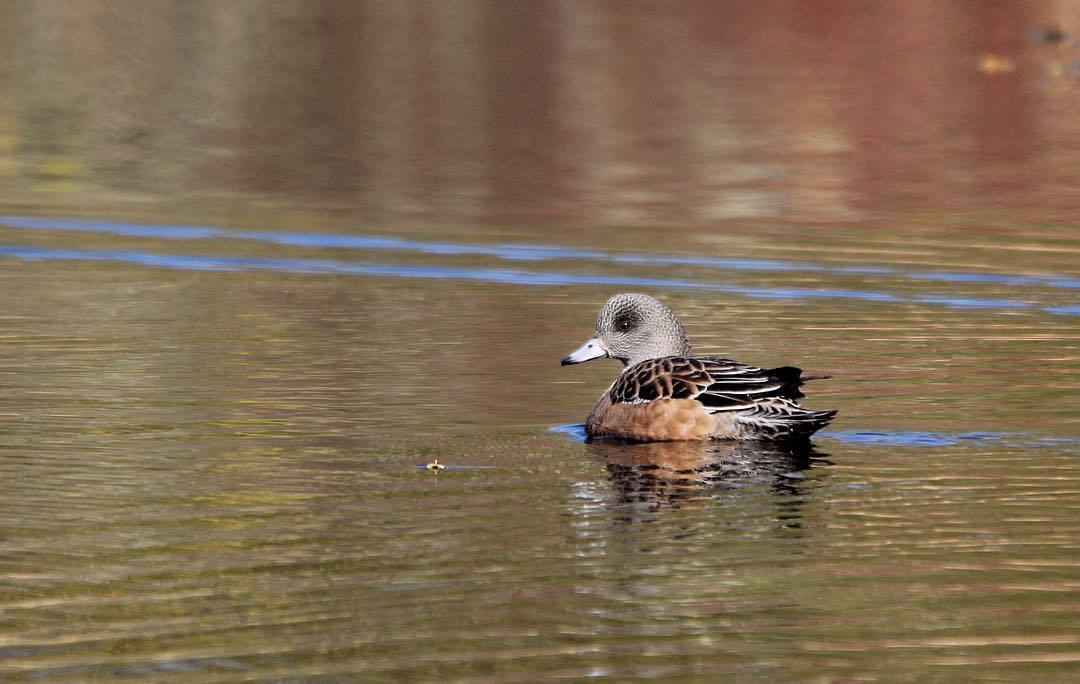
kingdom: Animalia
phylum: Chordata
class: Aves
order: Anseriformes
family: Anatidae
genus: Mareca
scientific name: Mareca americana
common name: American wigeon
